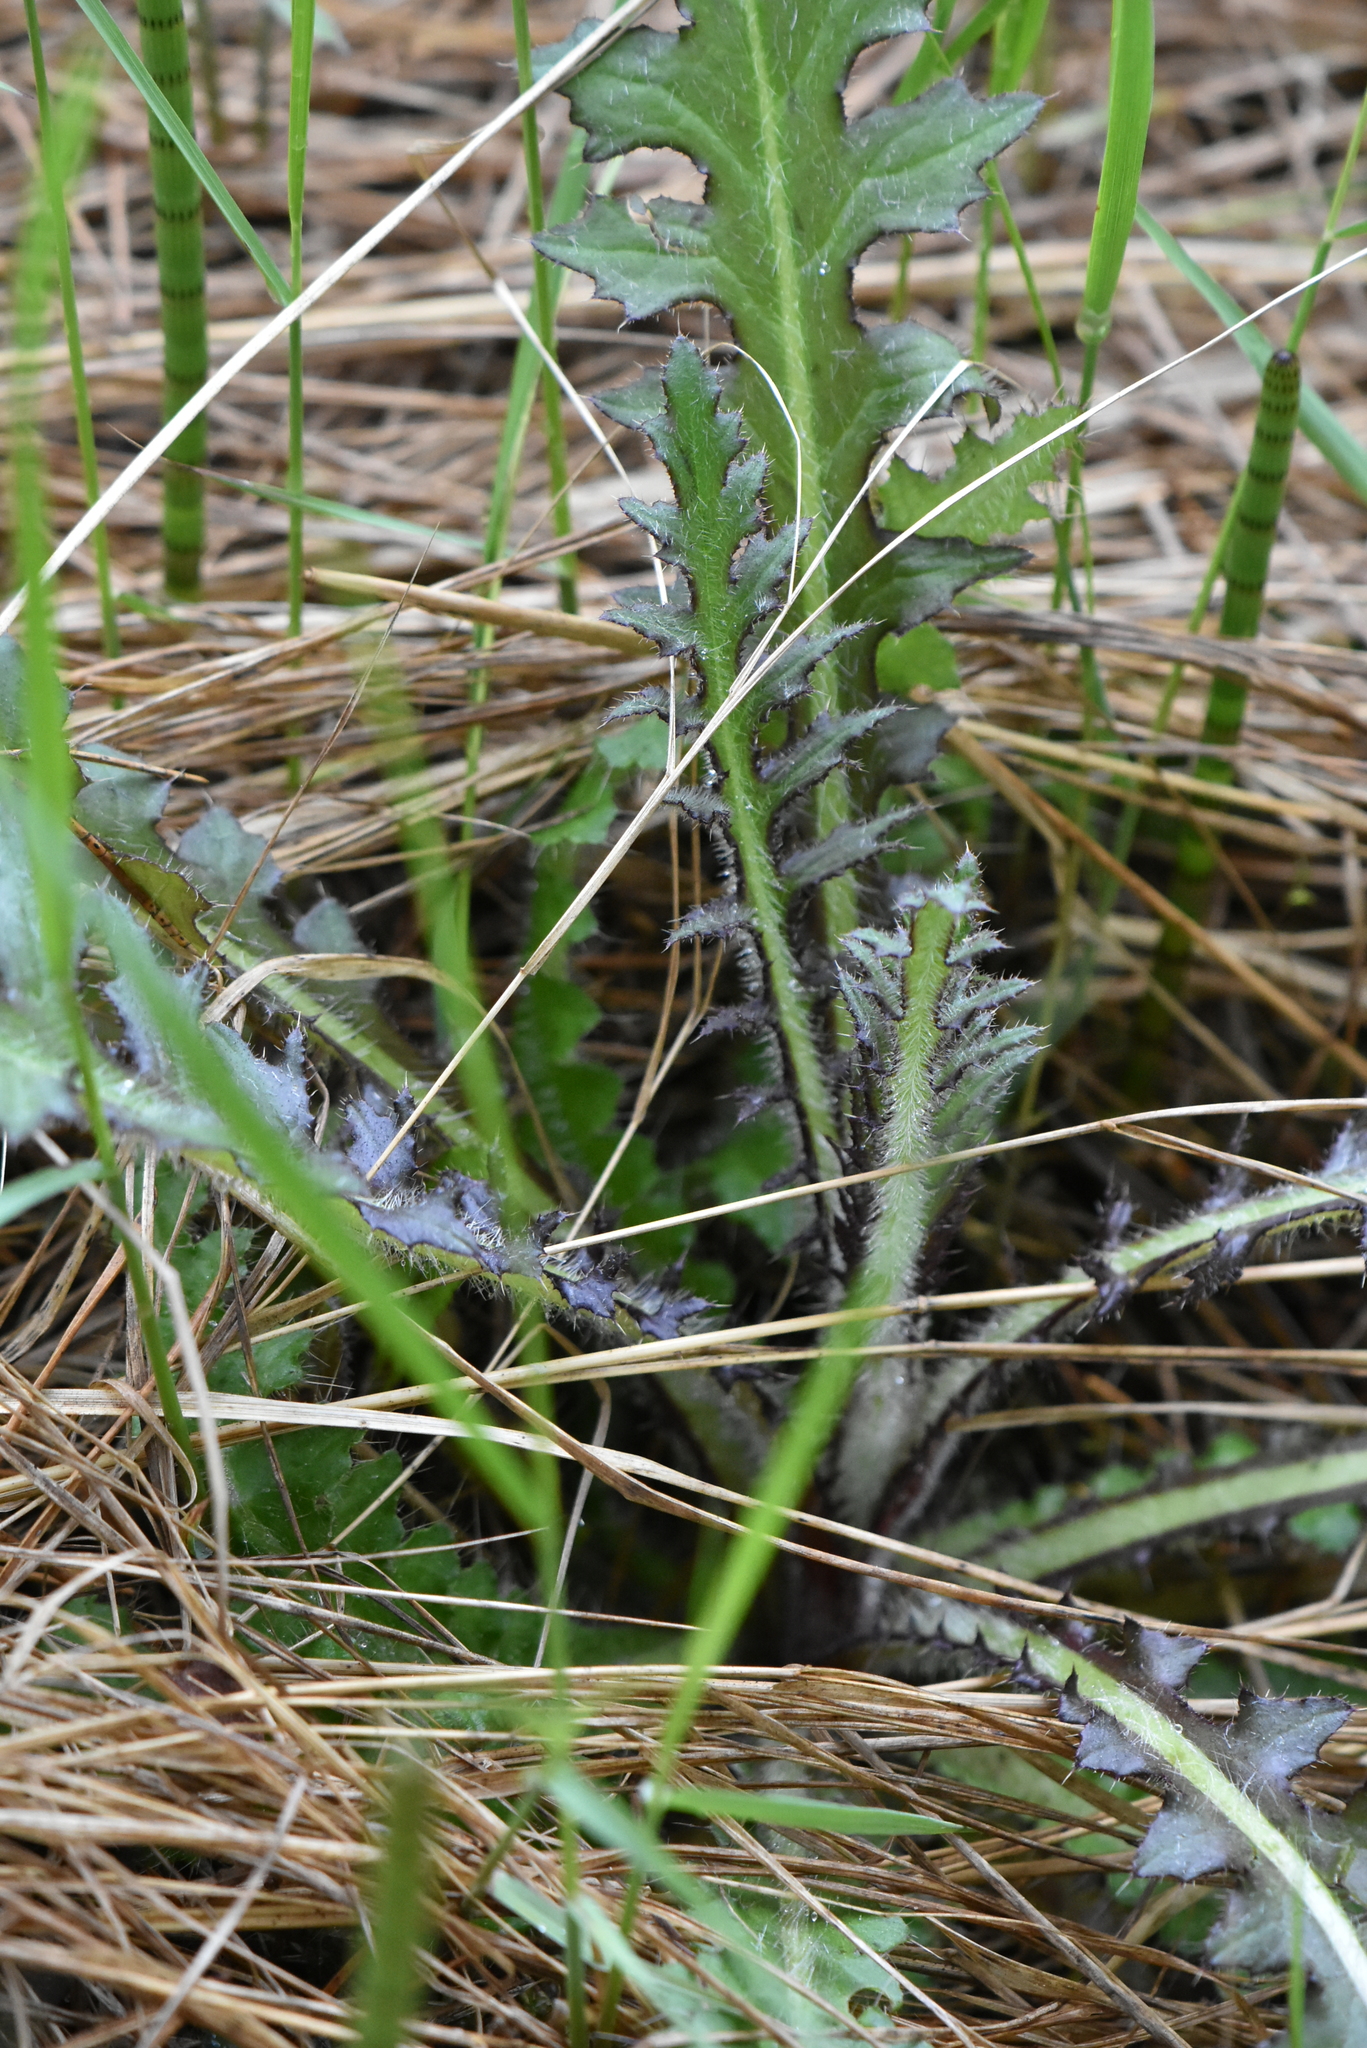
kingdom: Plantae
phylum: Tracheophyta
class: Magnoliopsida
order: Asterales
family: Asteraceae
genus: Cirsium
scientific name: Cirsium palustre
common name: Marsh thistle
